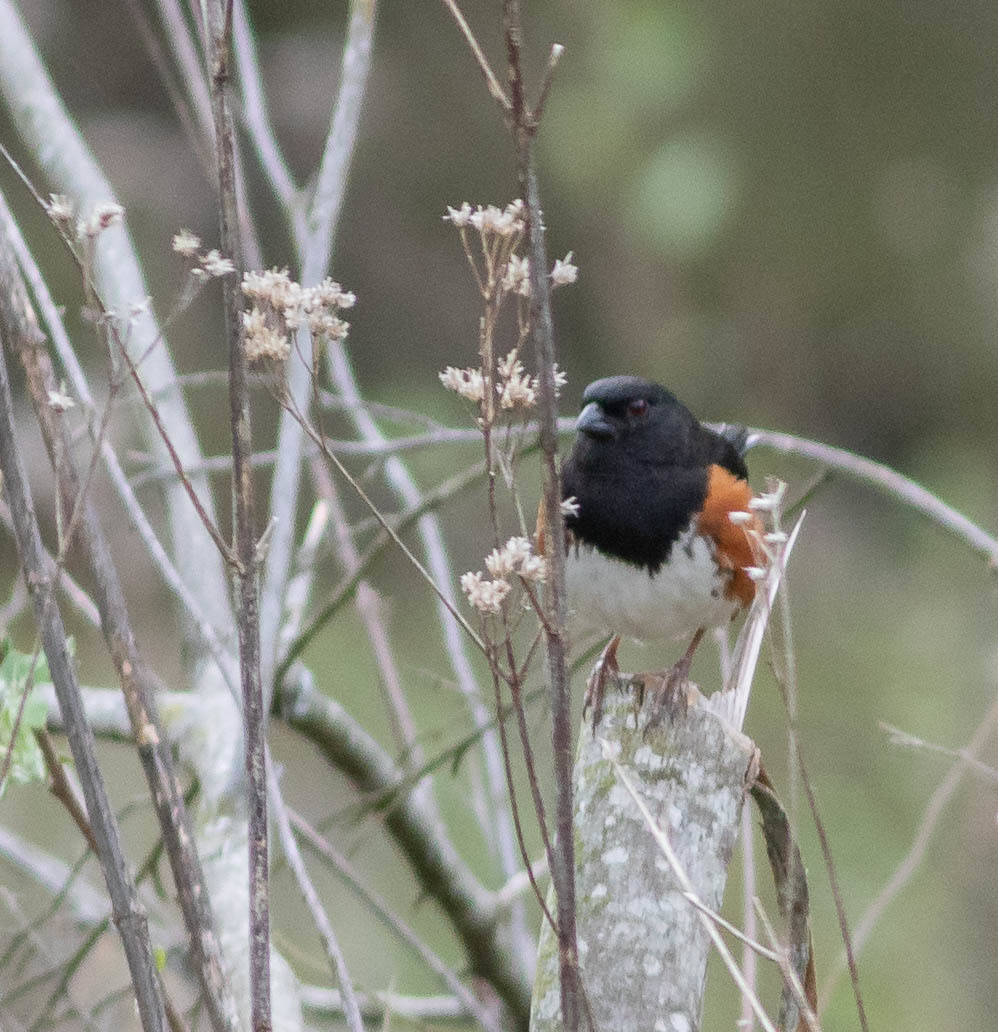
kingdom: Animalia
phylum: Chordata
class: Aves
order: Passeriformes
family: Passerellidae
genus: Pipilo
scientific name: Pipilo erythrophthalmus
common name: Eastern towhee
